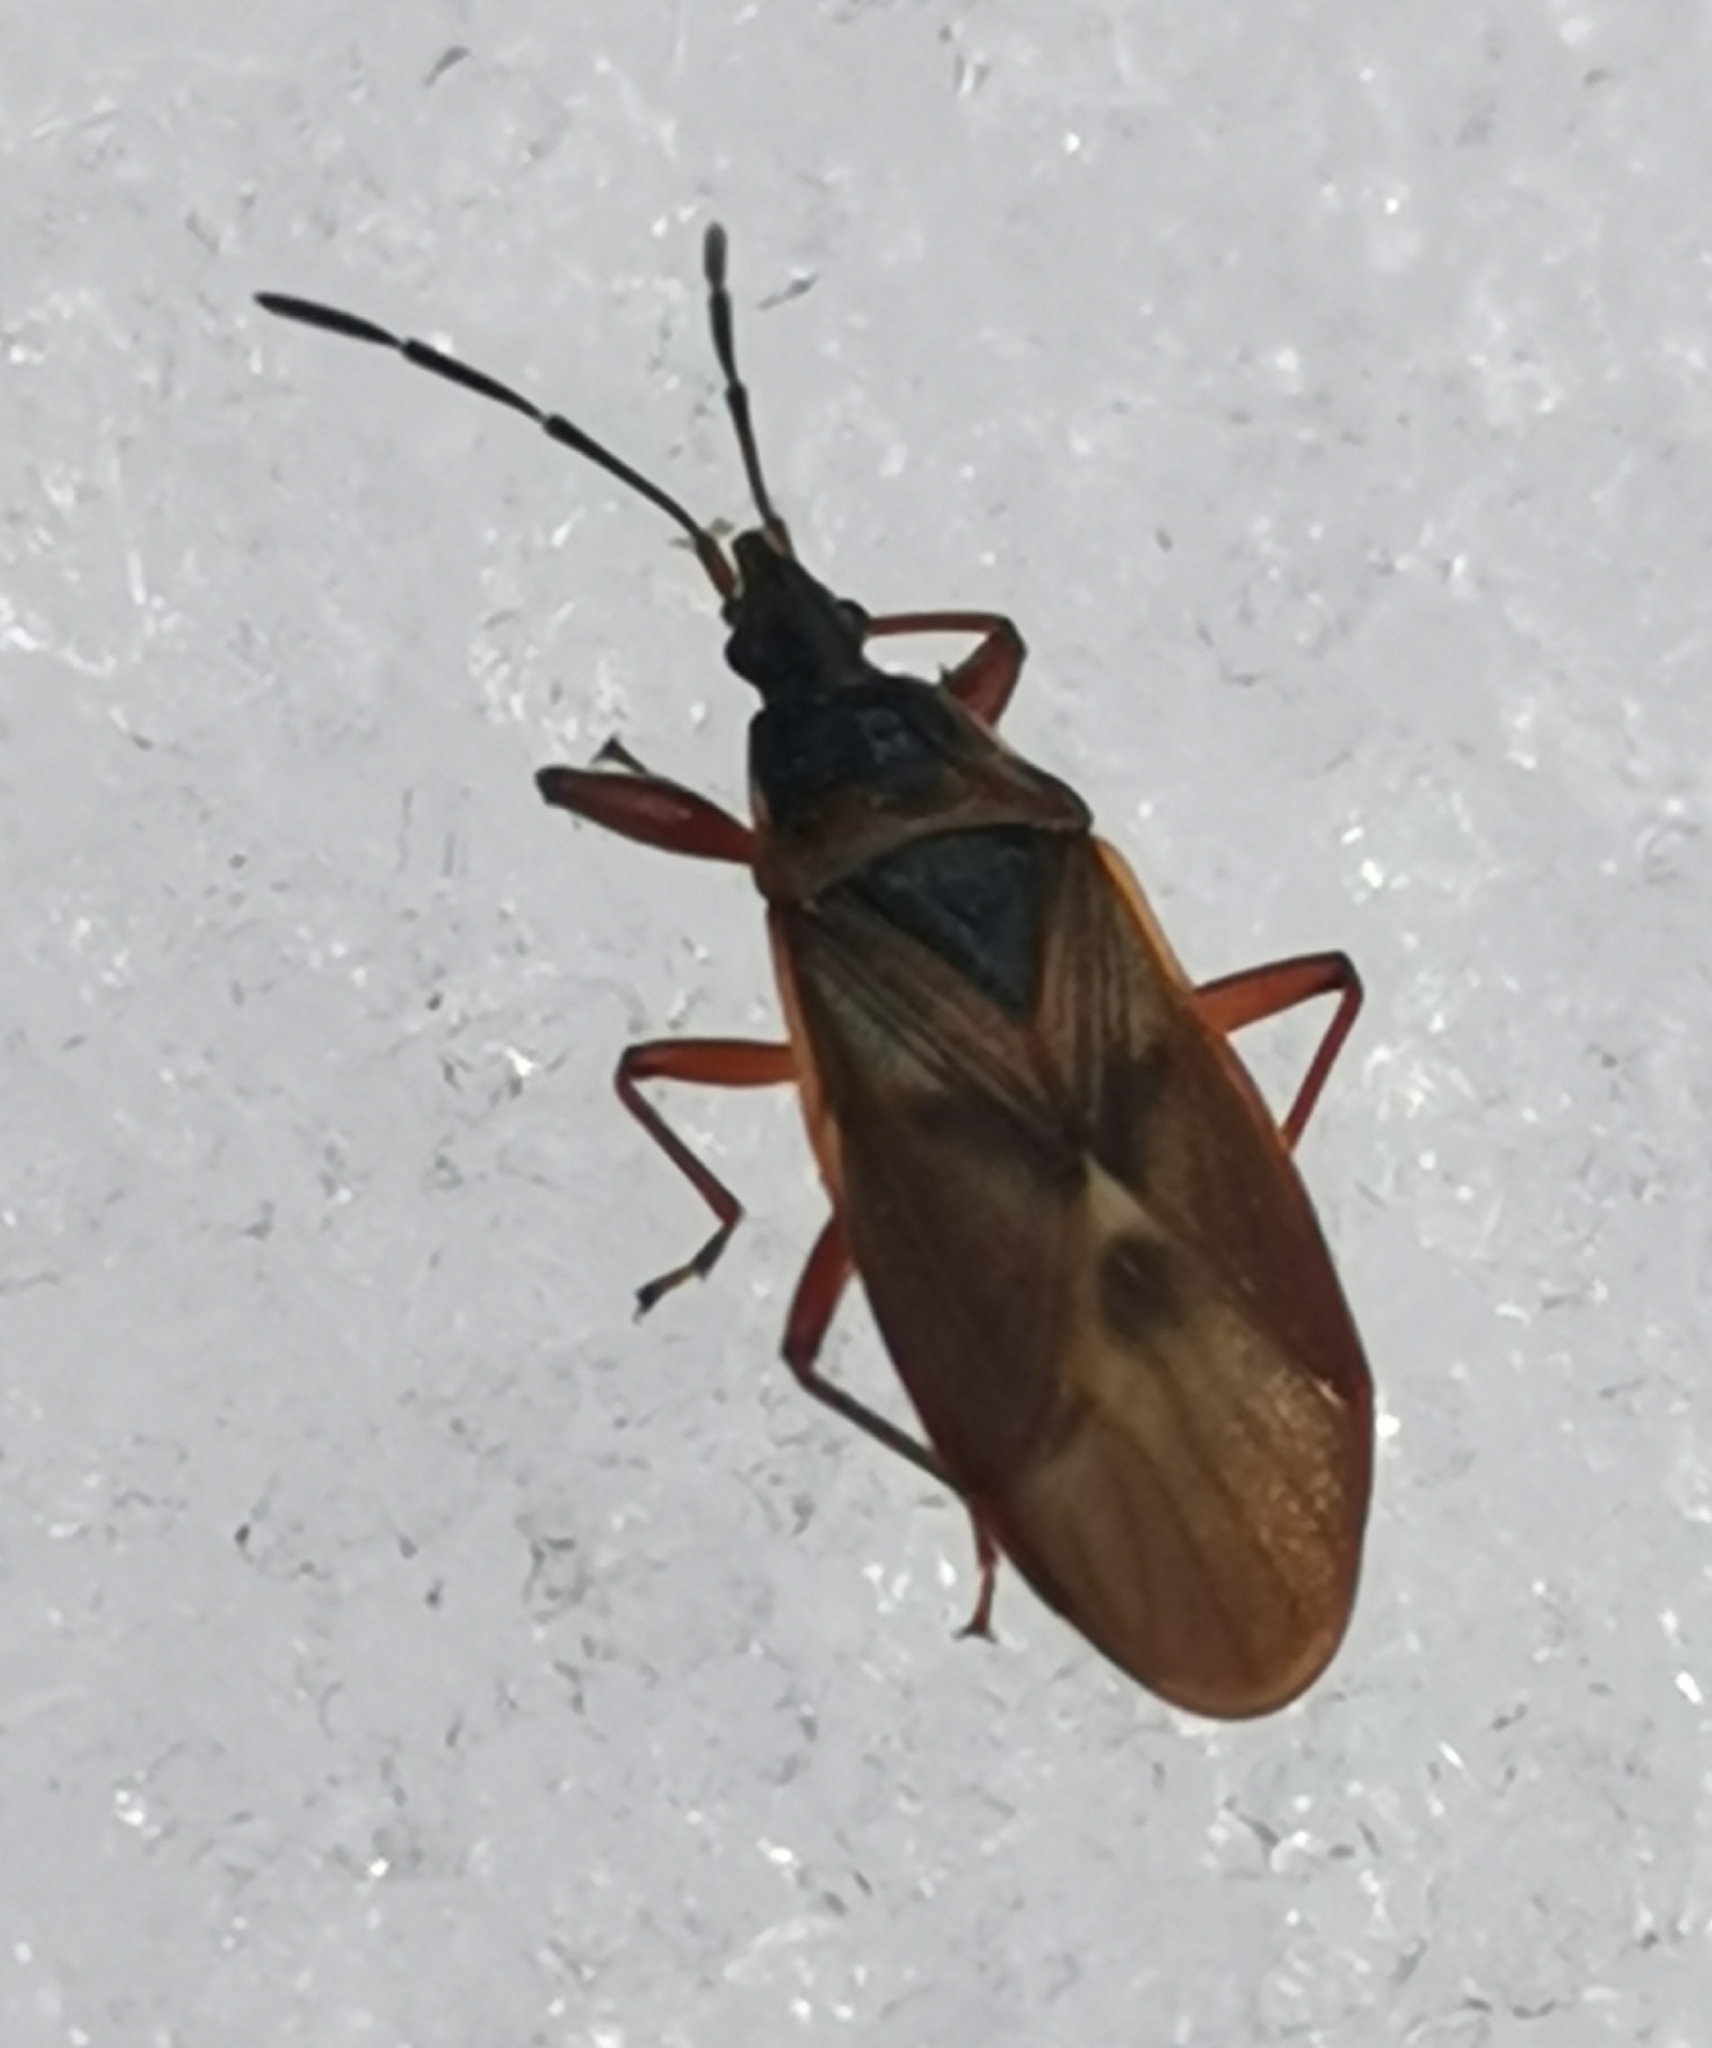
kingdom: Animalia
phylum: Arthropoda
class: Insecta
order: Hemiptera
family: Rhyparochromidae
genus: Gastrodes
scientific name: Gastrodes abietum
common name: Spruce cone bug
